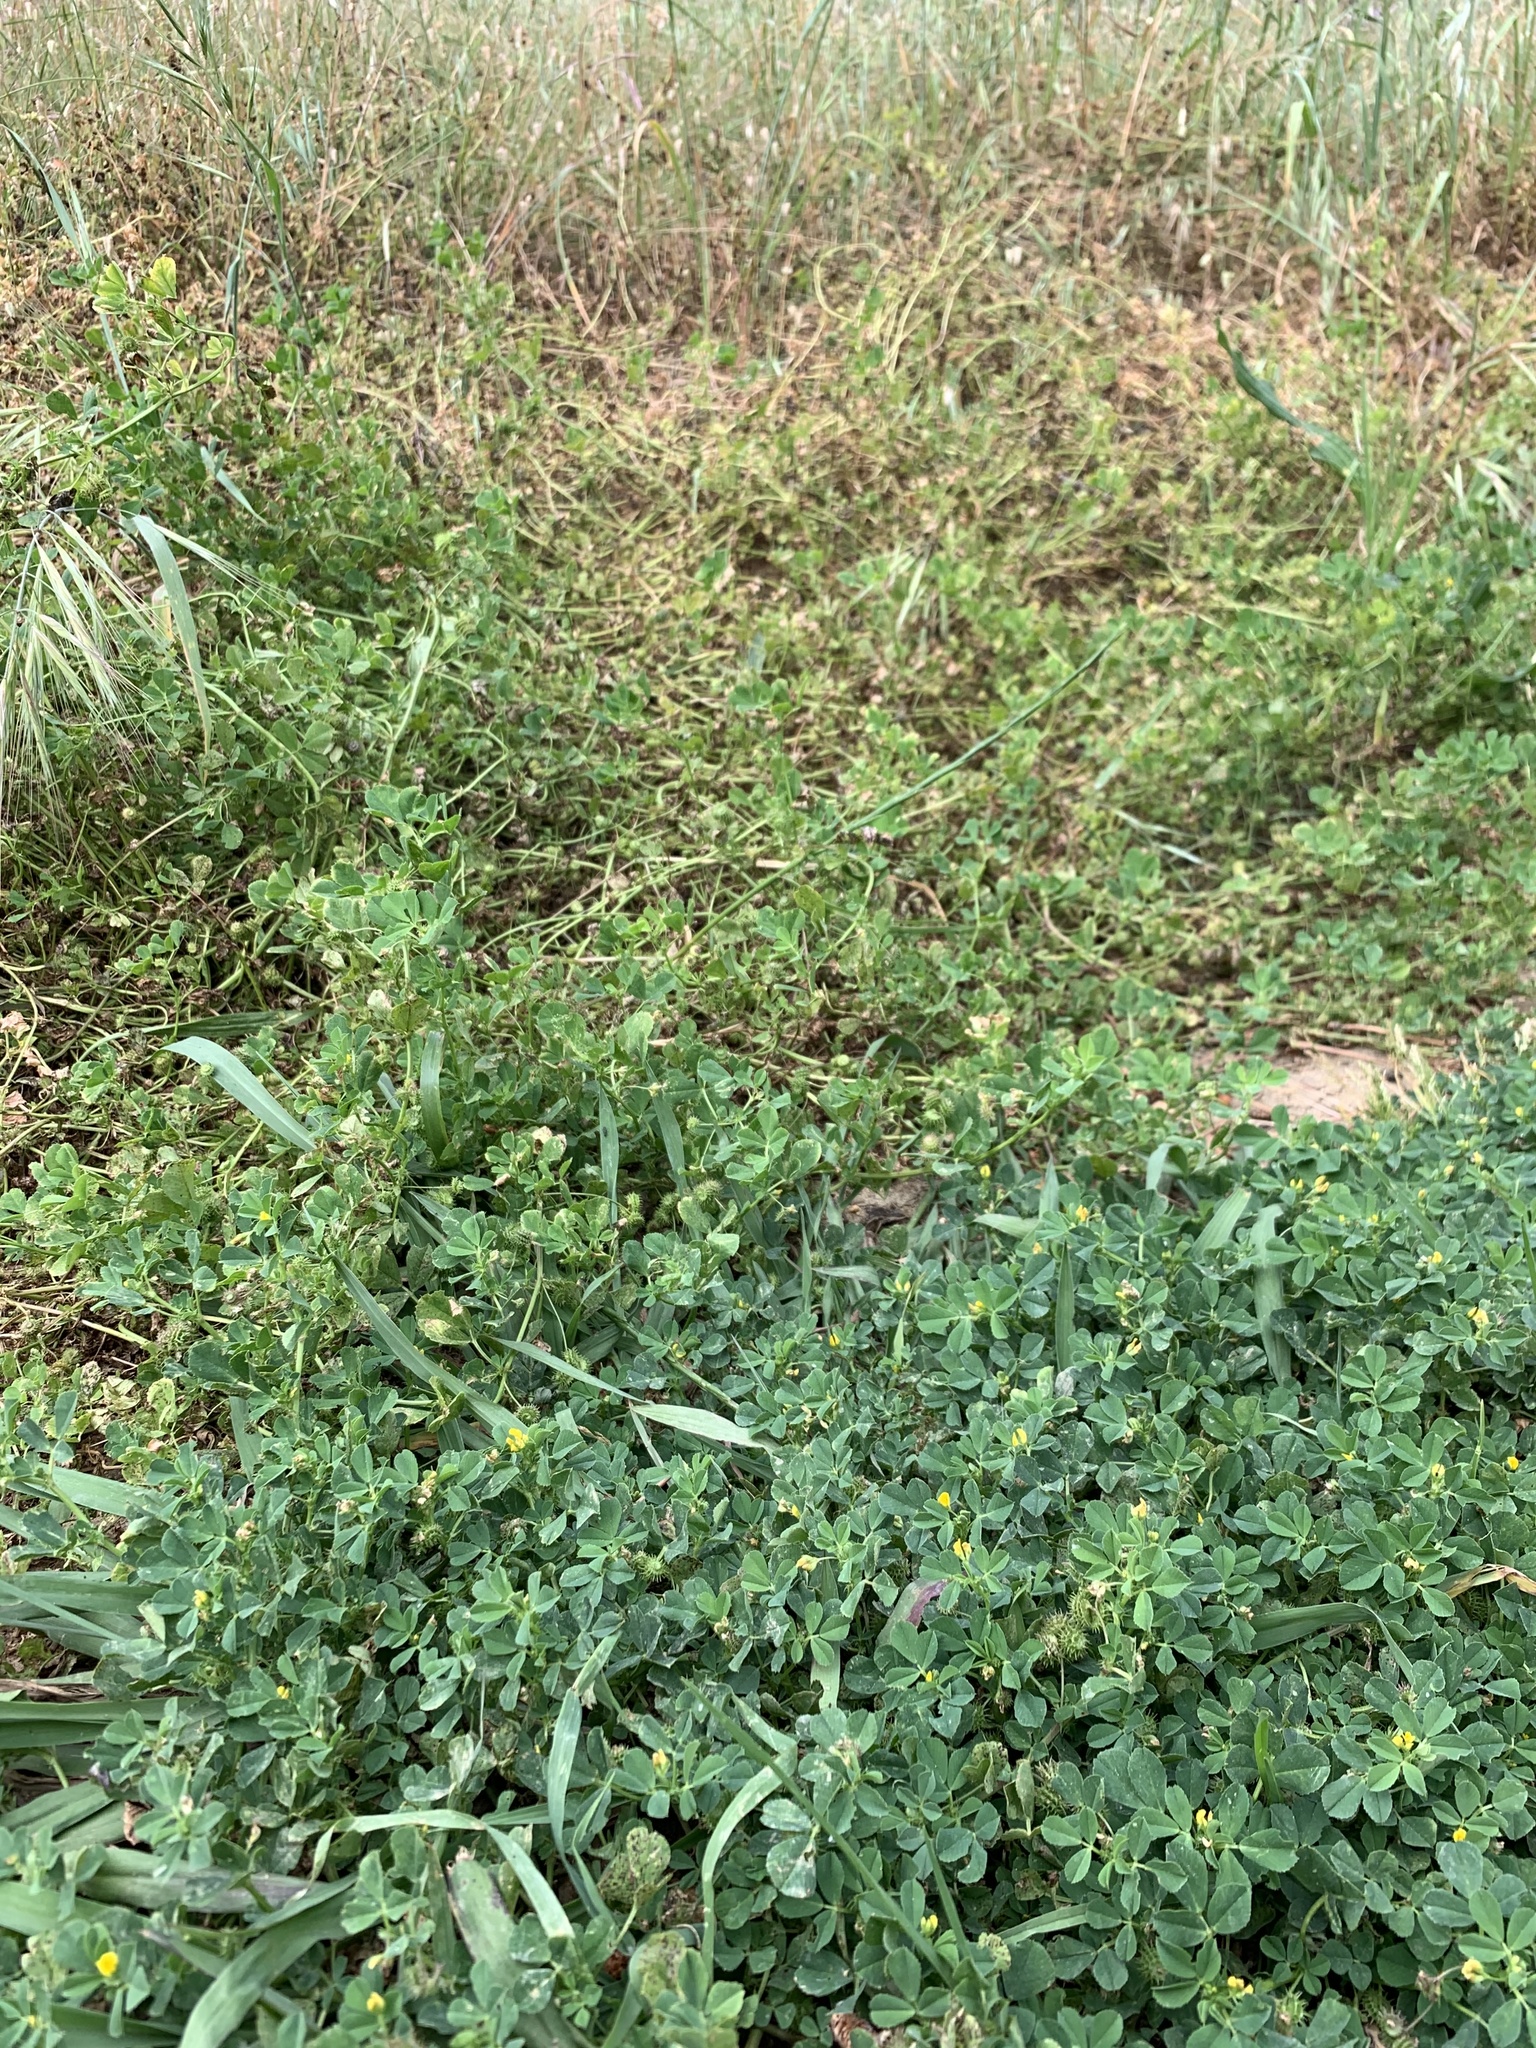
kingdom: Plantae
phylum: Tracheophyta
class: Magnoliopsida
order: Fabales
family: Fabaceae
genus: Medicago
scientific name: Medicago polymorpha
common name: Burclover
